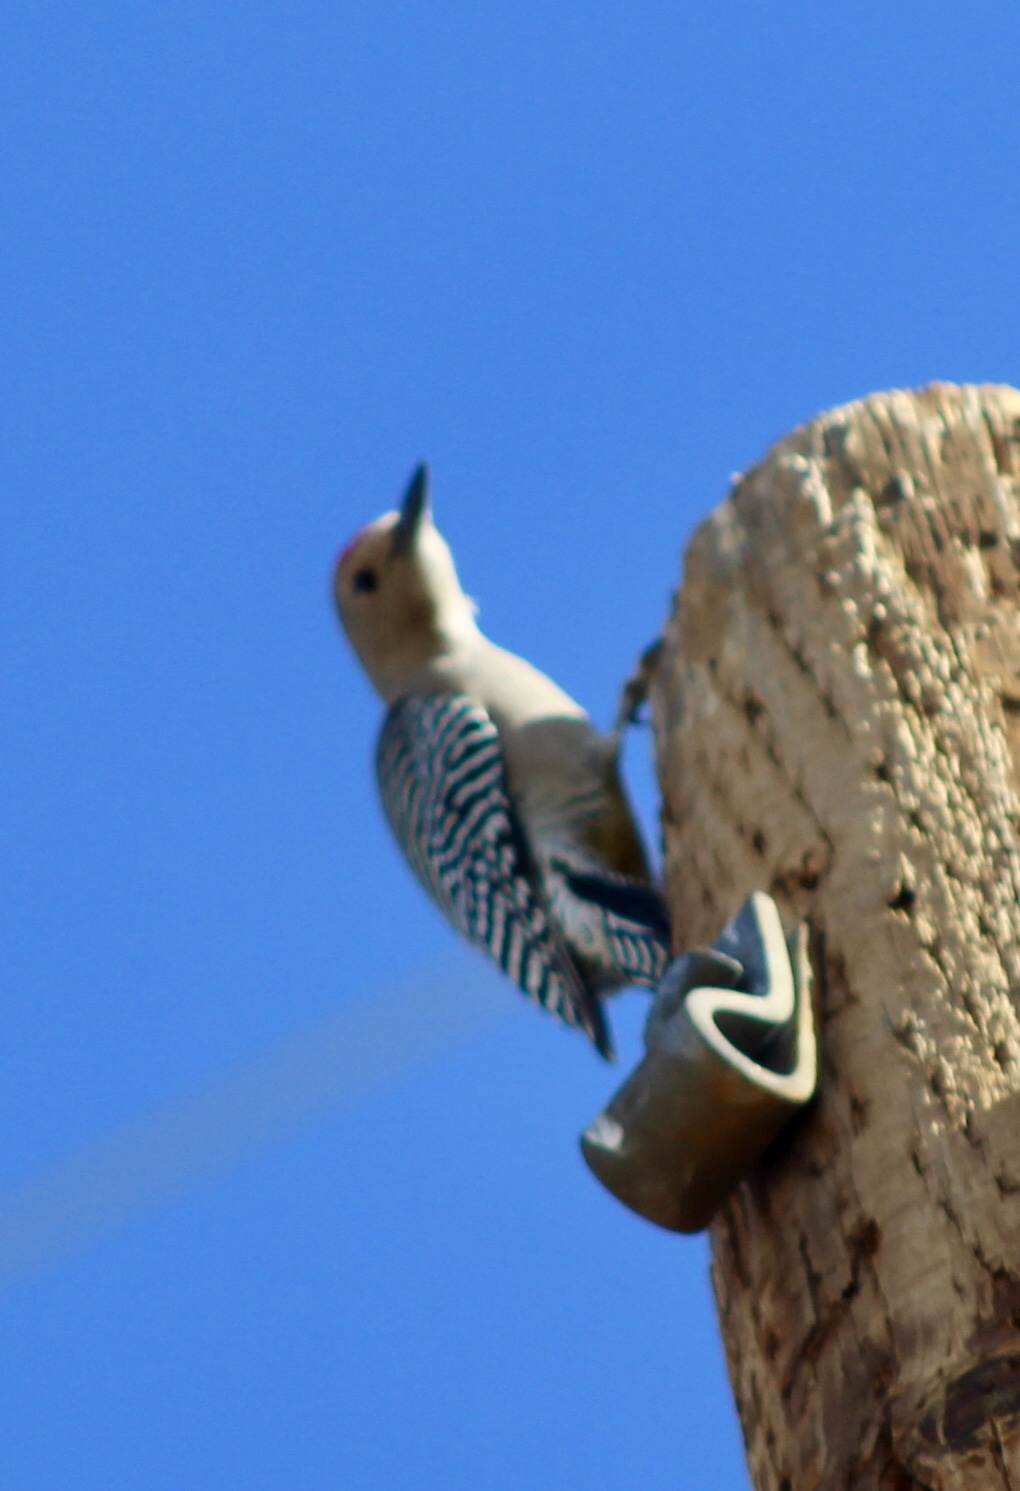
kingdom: Animalia
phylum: Chordata
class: Aves
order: Piciformes
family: Picidae
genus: Melanerpes
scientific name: Melanerpes uropygialis
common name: Gila woodpecker
